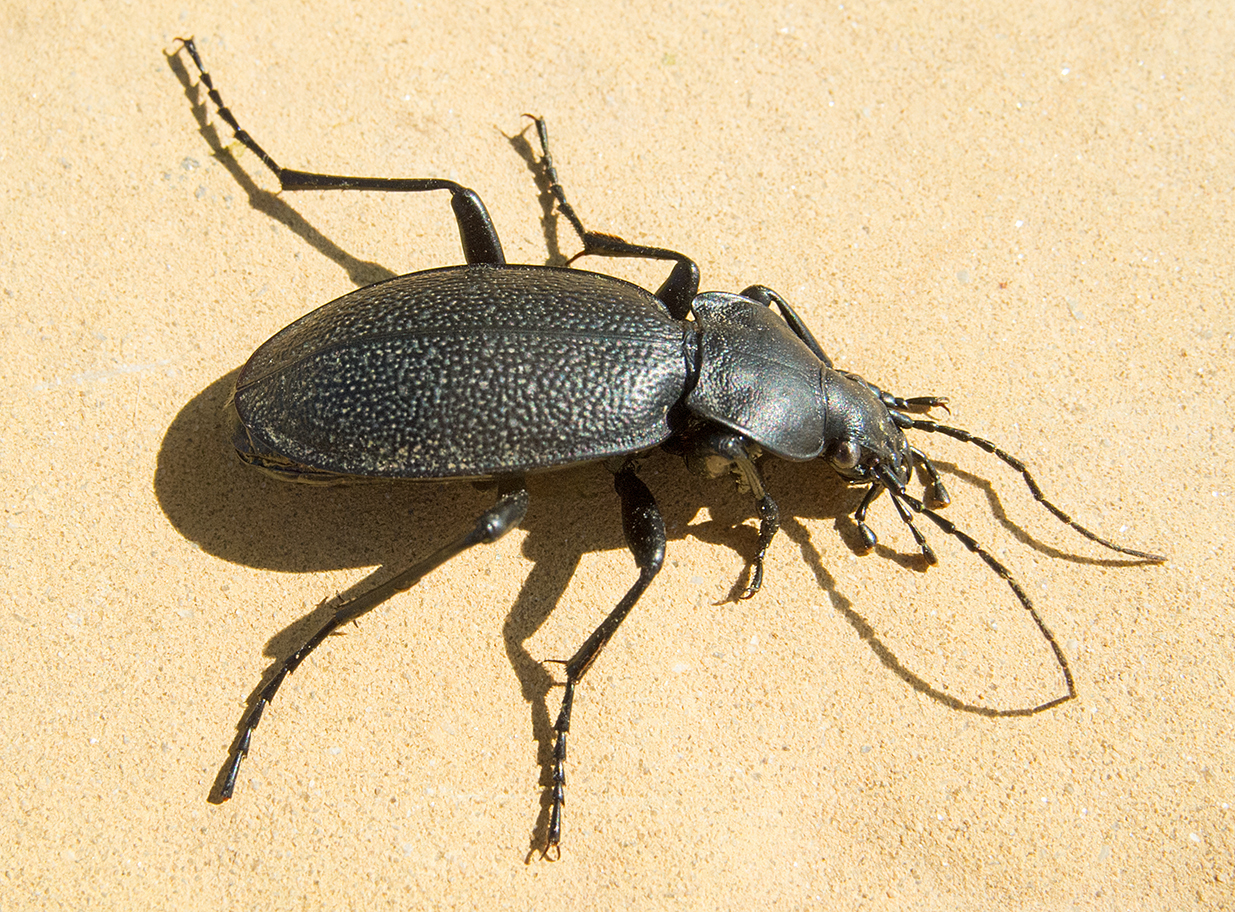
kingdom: Animalia
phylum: Arthropoda
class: Insecta
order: Coleoptera
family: Carabidae
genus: Carabus
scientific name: Carabus coriaceus
